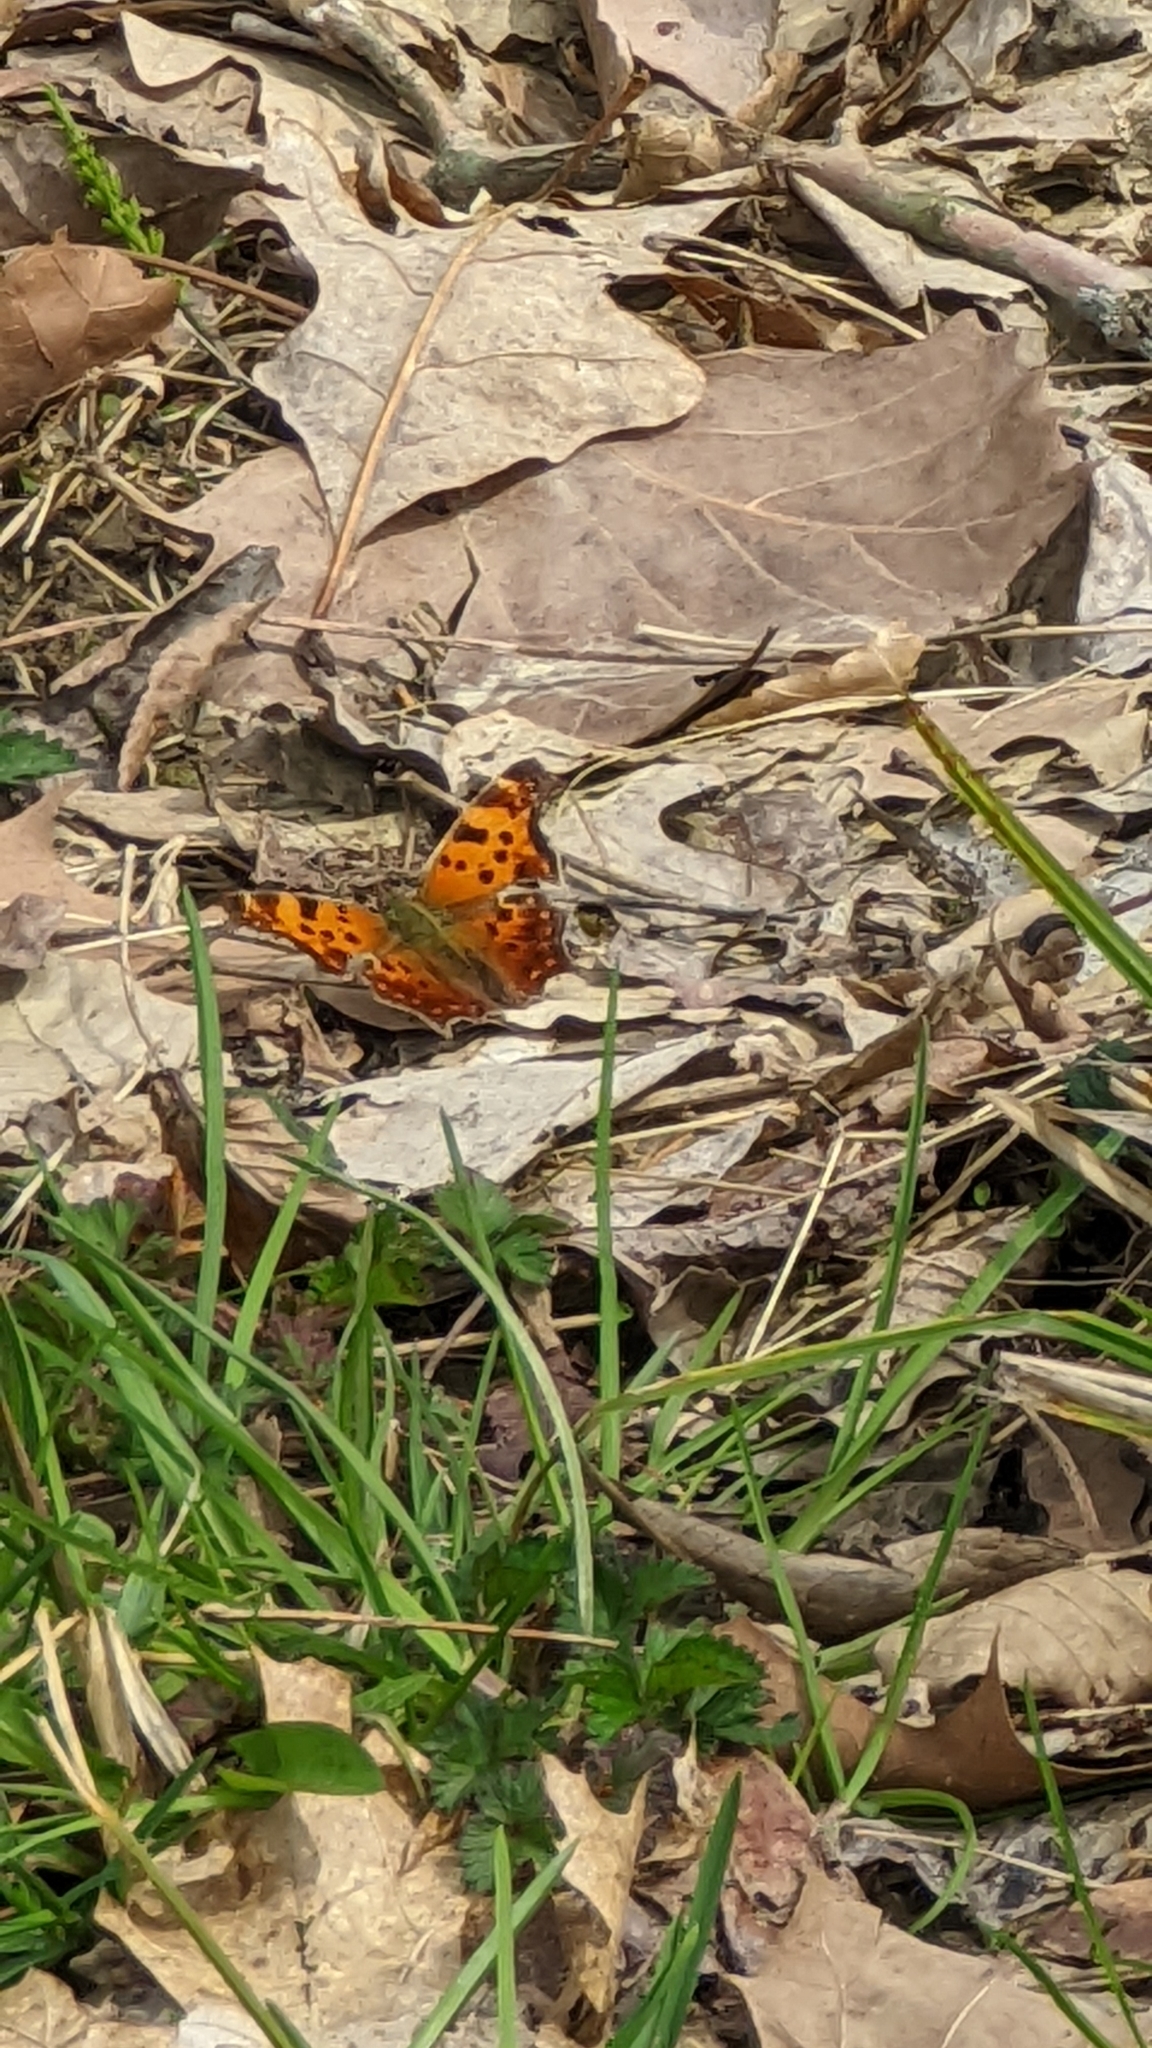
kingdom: Animalia
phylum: Arthropoda
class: Insecta
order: Lepidoptera
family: Nymphalidae
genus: Polygonia
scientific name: Polygonia comma
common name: Eastern comma
